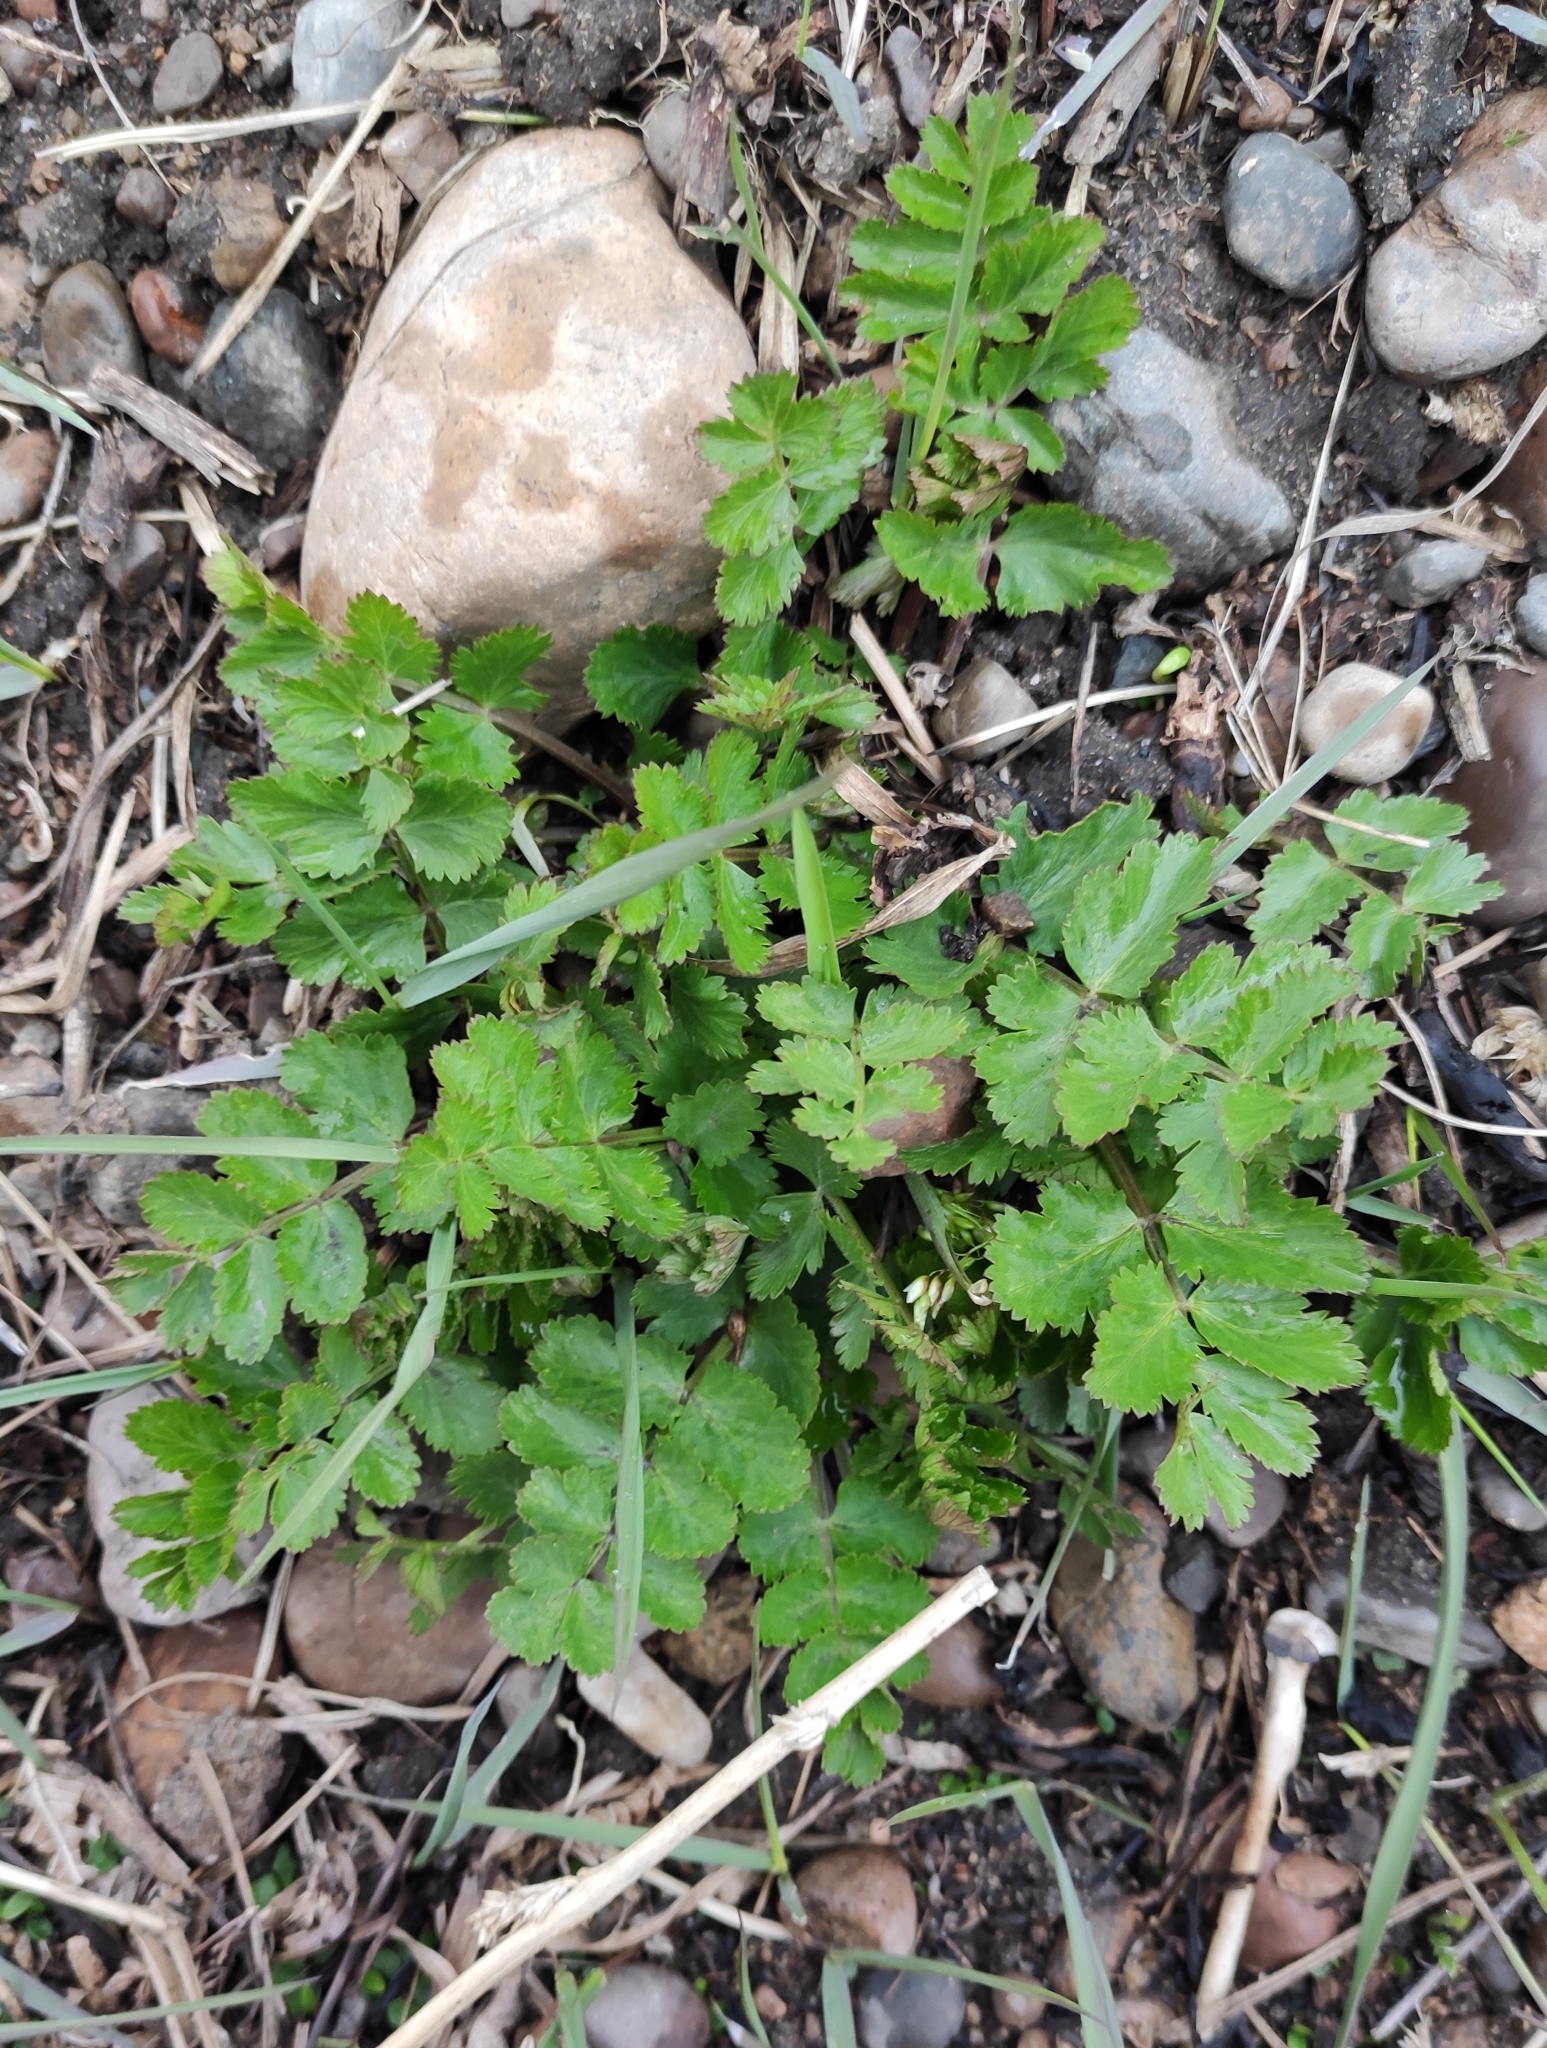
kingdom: Plantae
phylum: Tracheophyta
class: Magnoliopsida
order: Apiales
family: Apiaceae
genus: Pimpinella
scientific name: Pimpinella saxifraga
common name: Burnet-saxifrage
